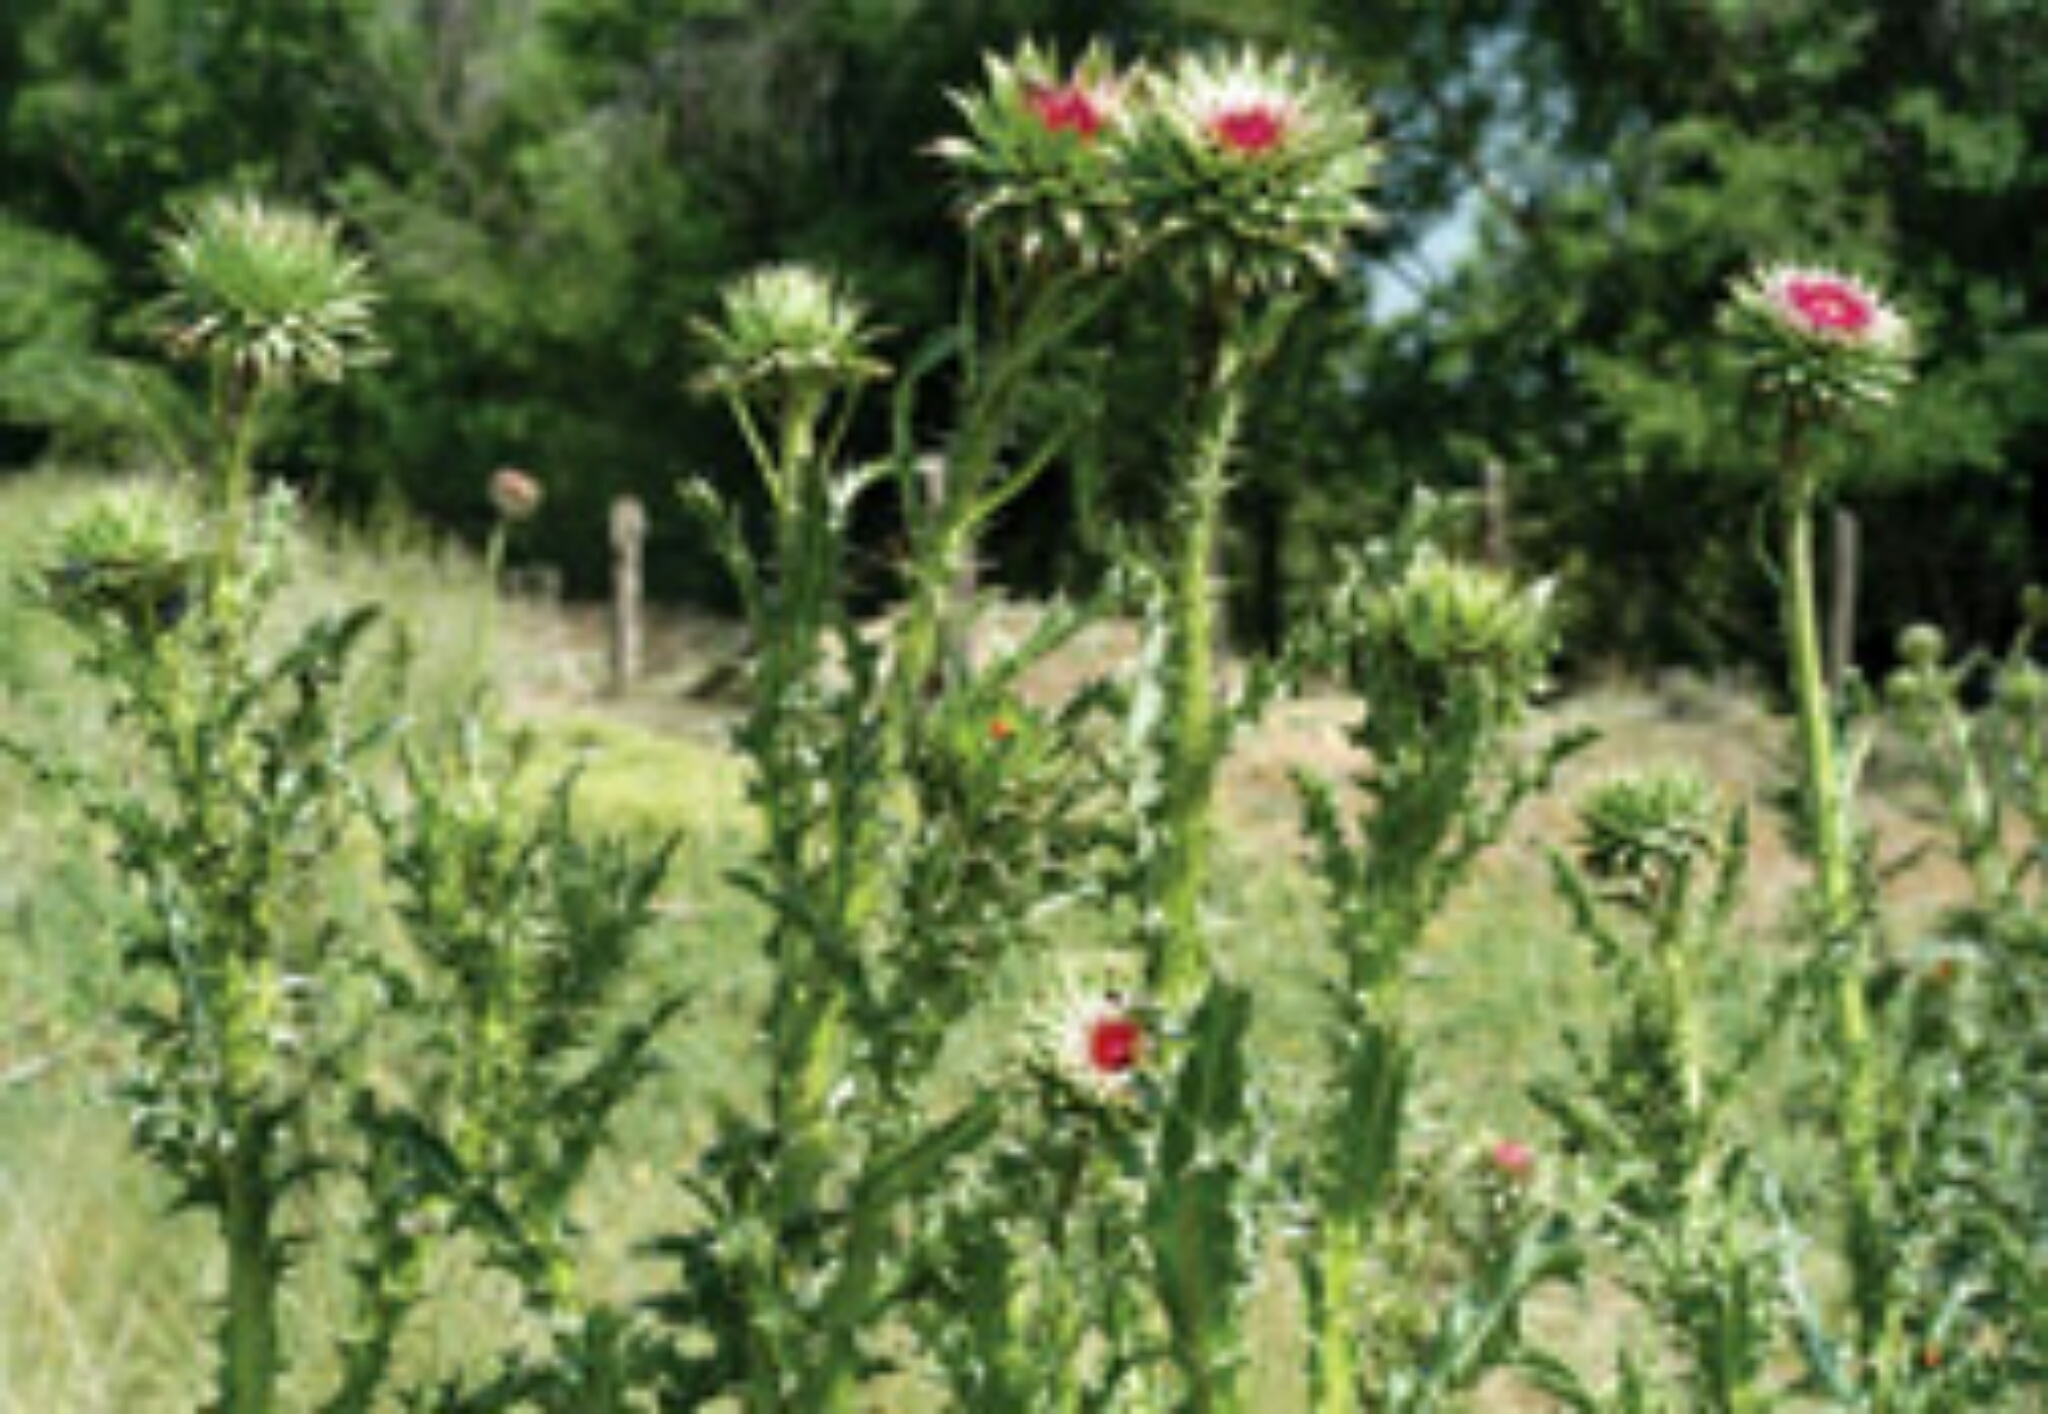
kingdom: Plantae
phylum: Tracheophyta
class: Magnoliopsida
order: Asterales
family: Asteraceae
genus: Carduus
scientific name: Carduus nutans
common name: Musk thistle
